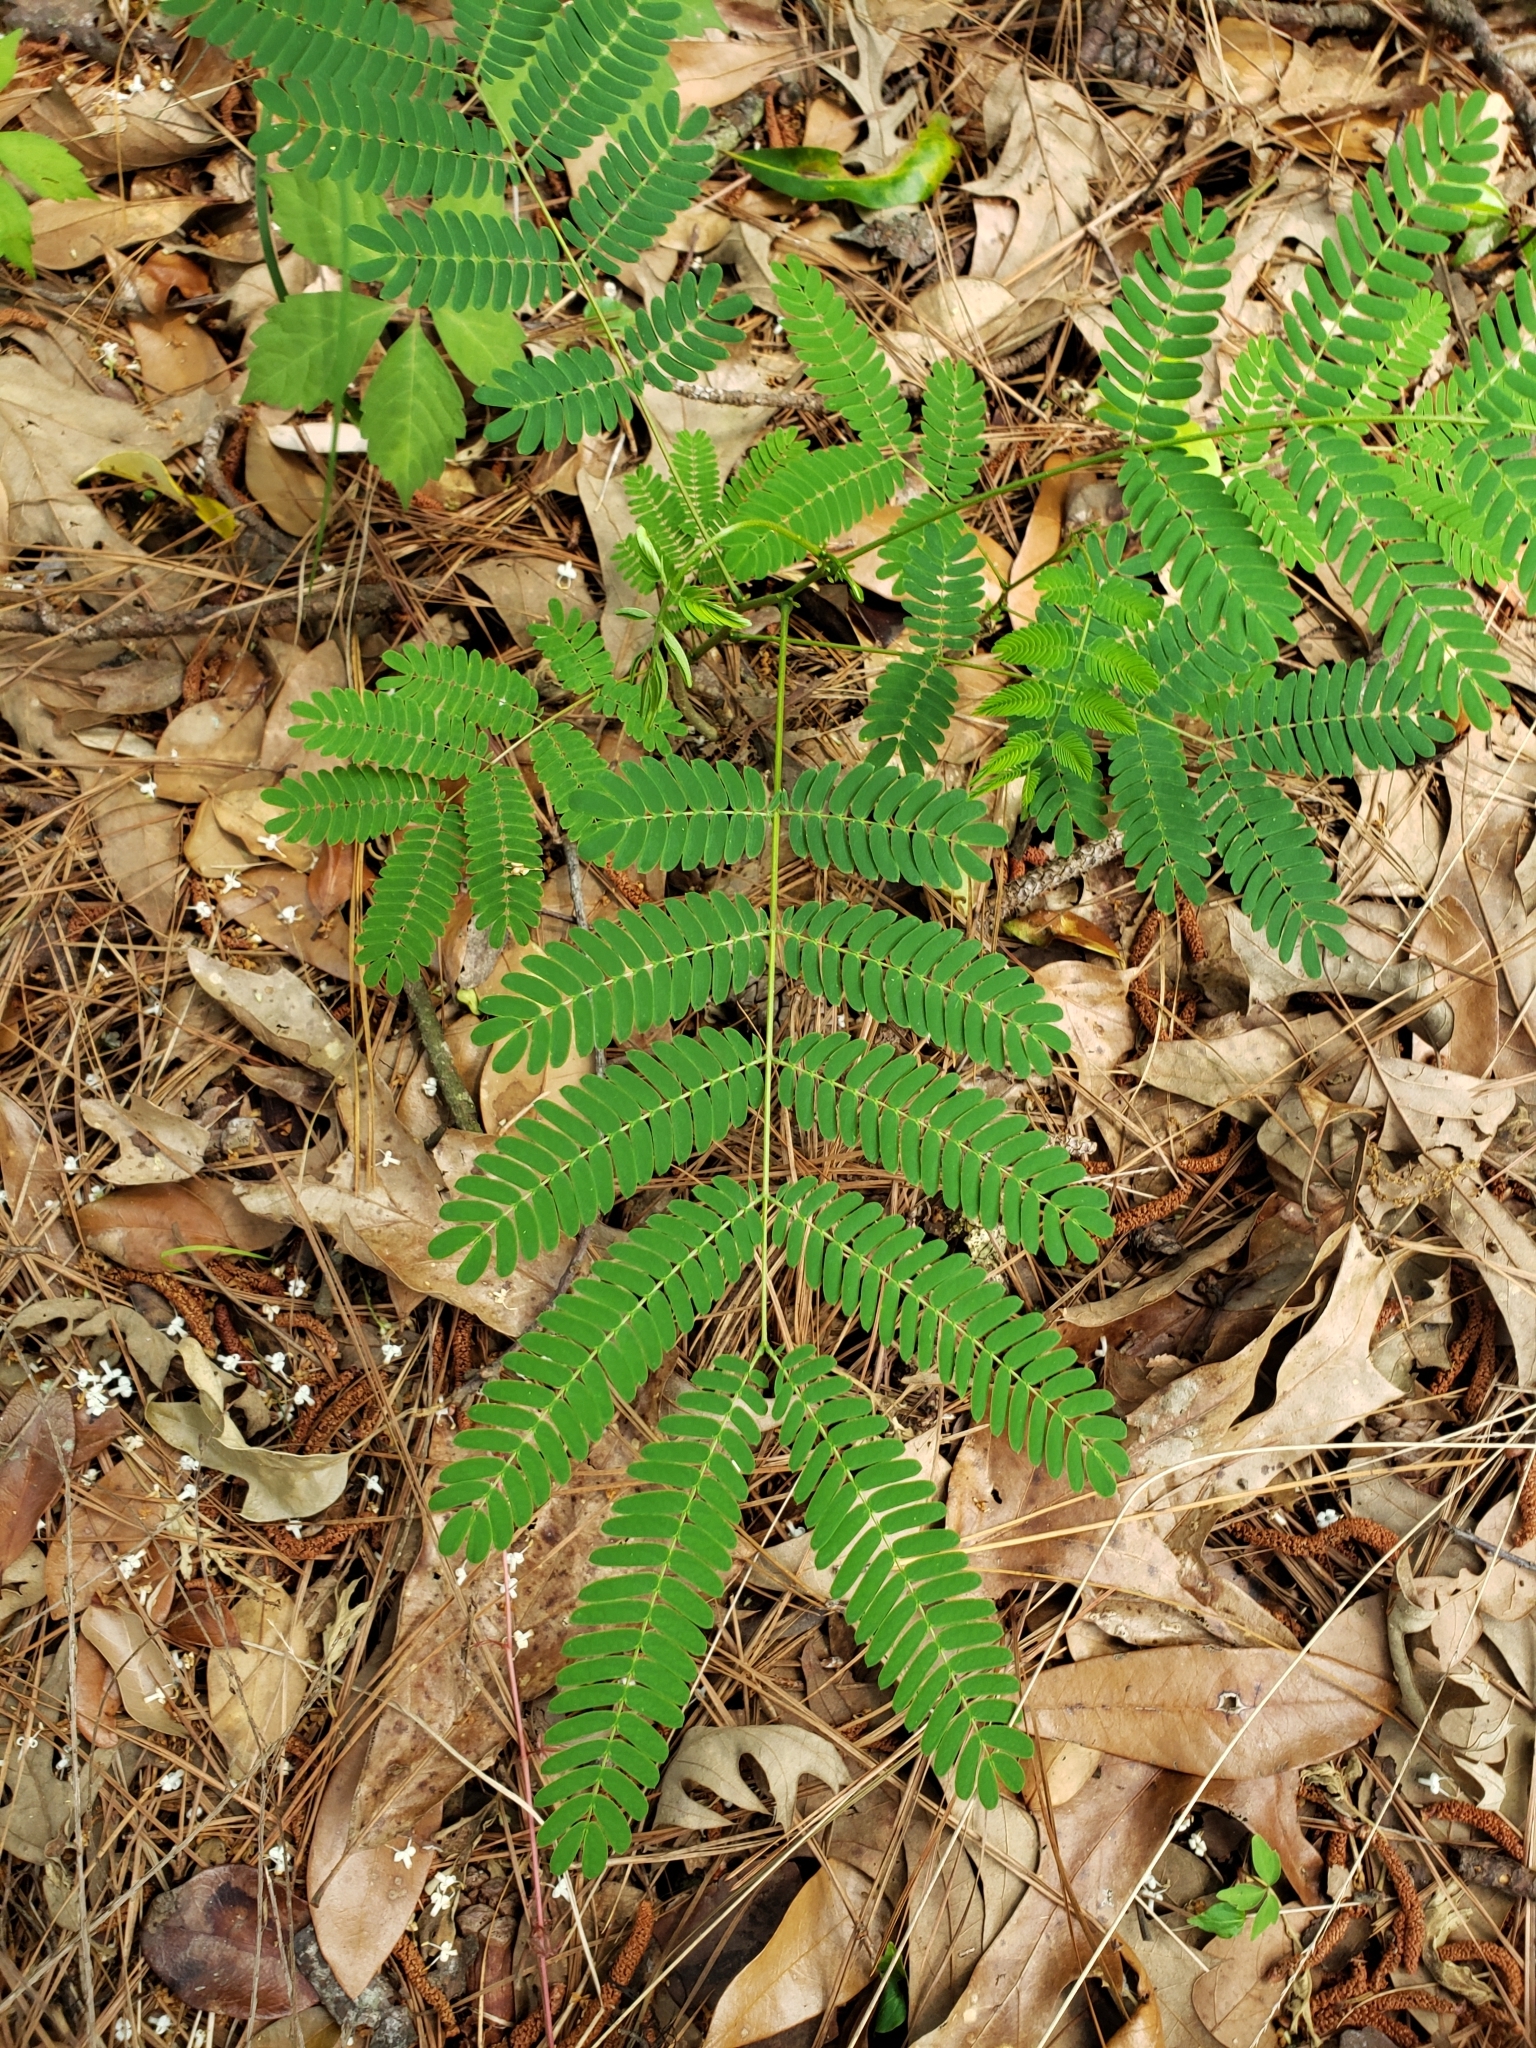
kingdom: Plantae
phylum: Tracheophyta
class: Magnoliopsida
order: Fabales
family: Fabaceae
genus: Albizia
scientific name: Albizia julibrissin
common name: Silktree
